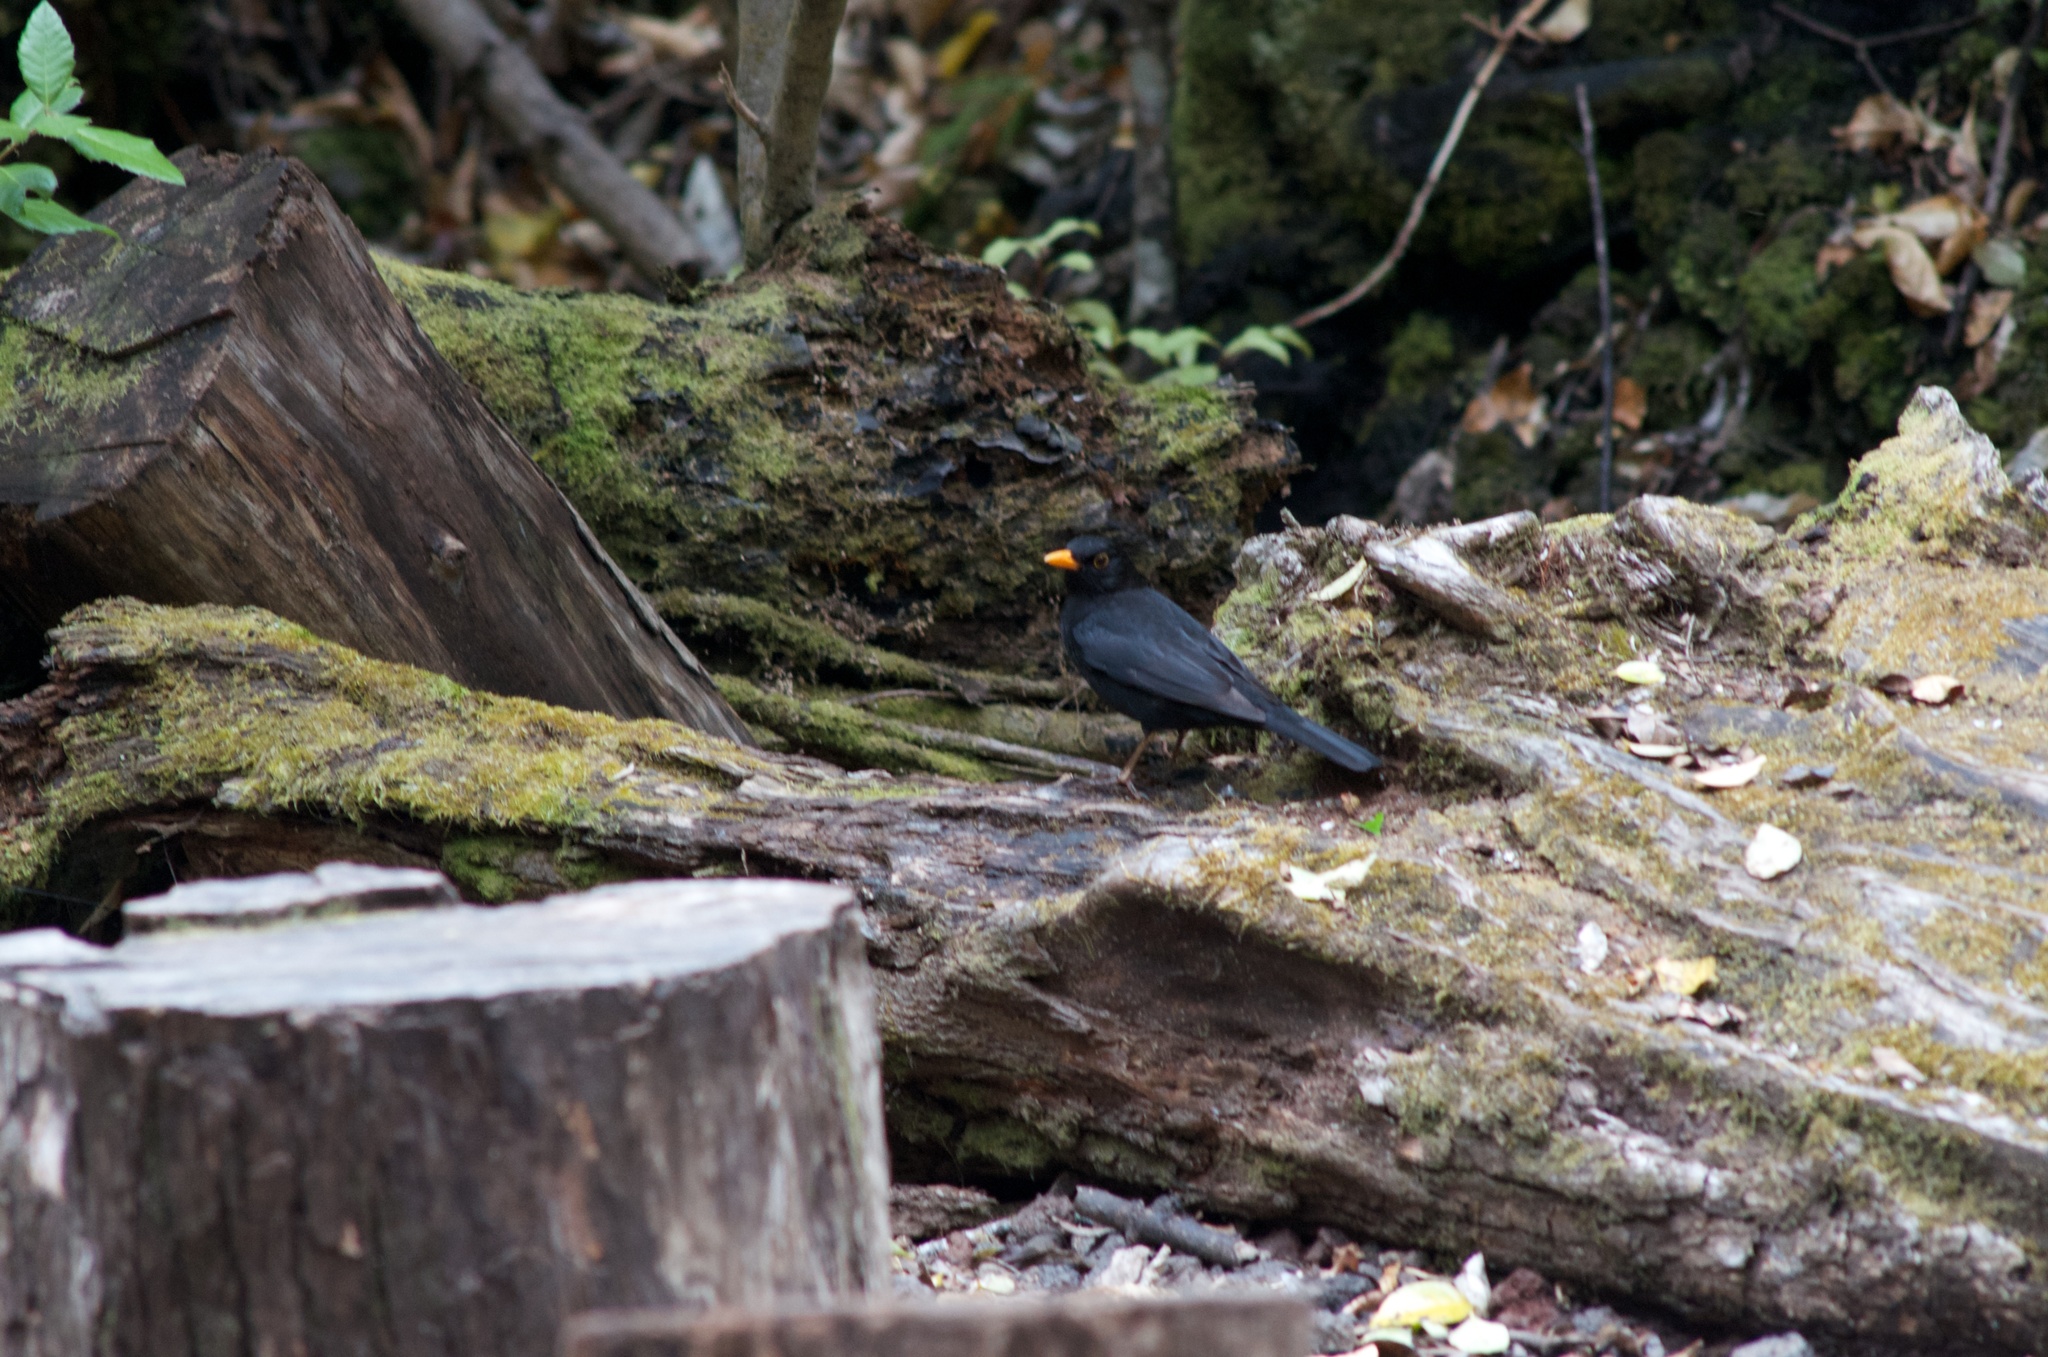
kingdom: Animalia
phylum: Chordata
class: Aves
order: Passeriformes
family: Turdidae
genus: Turdus
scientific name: Turdus merula
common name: Common blackbird
